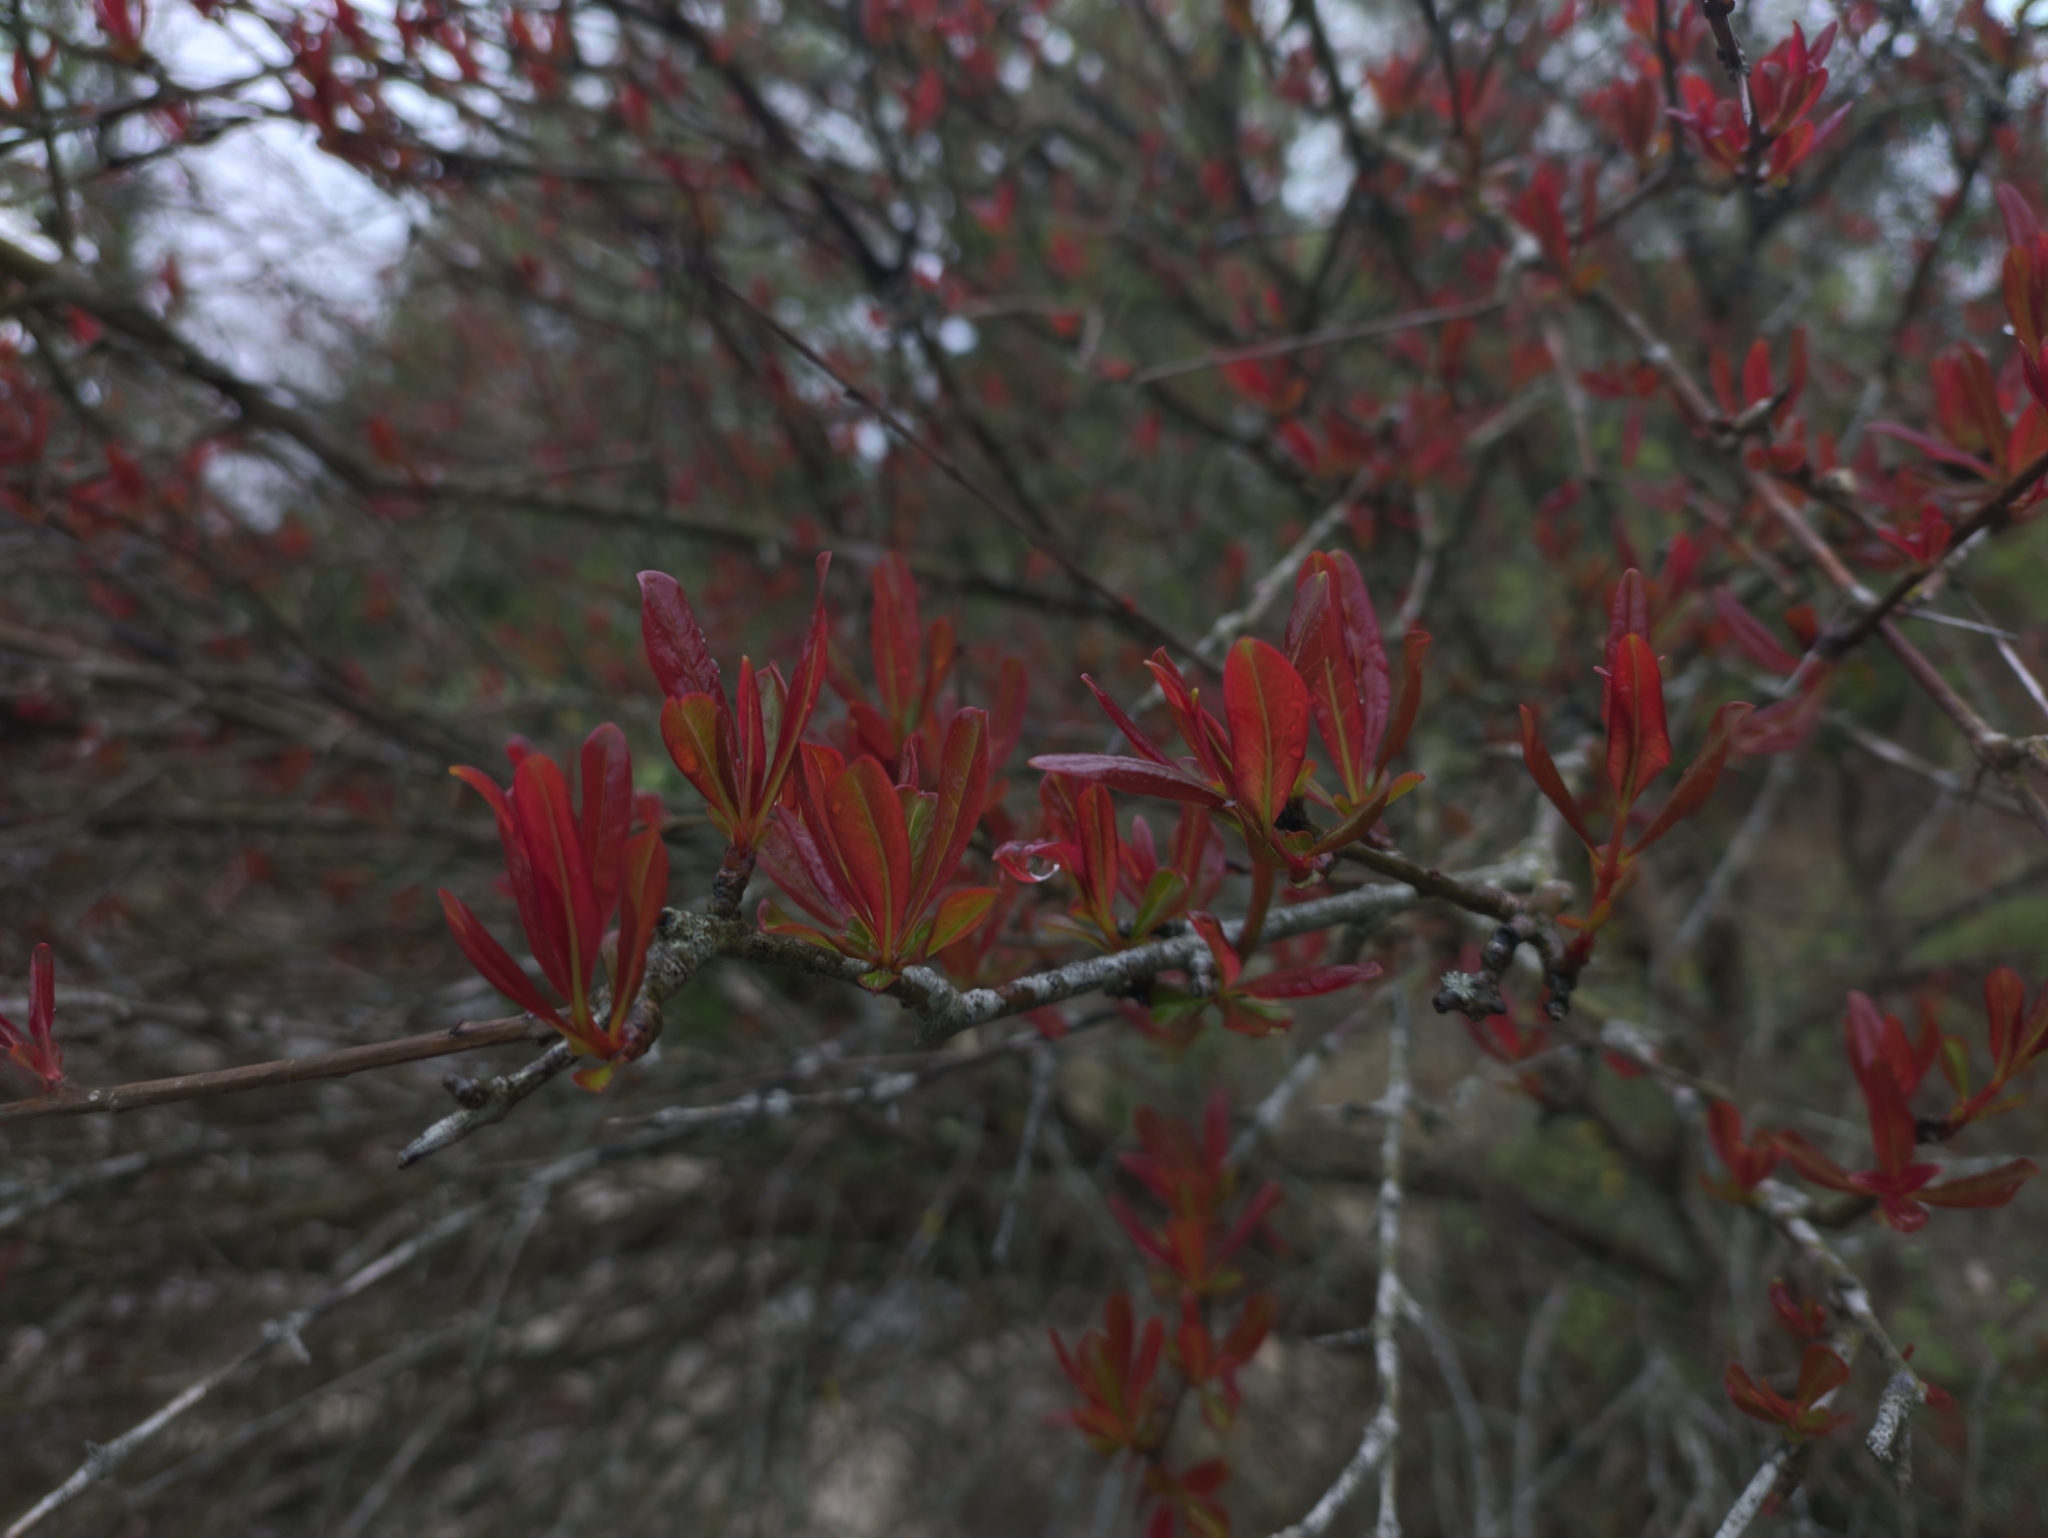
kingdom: Plantae
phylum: Tracheophyta
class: Magnoliopsida
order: Myrtales
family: Lythraceae
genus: Punica
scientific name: Punica granatum
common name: Pomegranate
